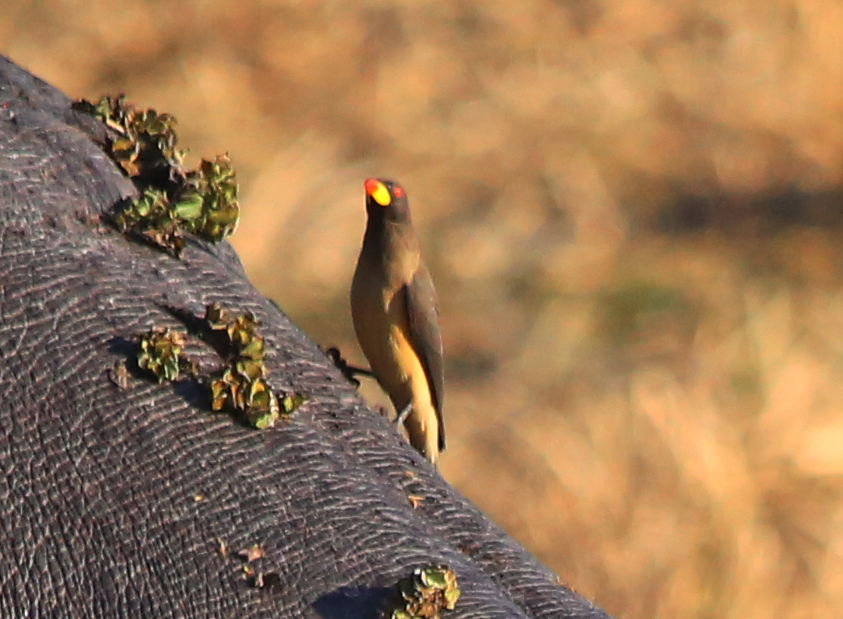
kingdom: Animalia
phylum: Chordata
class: Aves
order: Passeriformes
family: Buphagidae
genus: Buphagus
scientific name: Buphagus africanus
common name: Yellow-billed oxpecker
